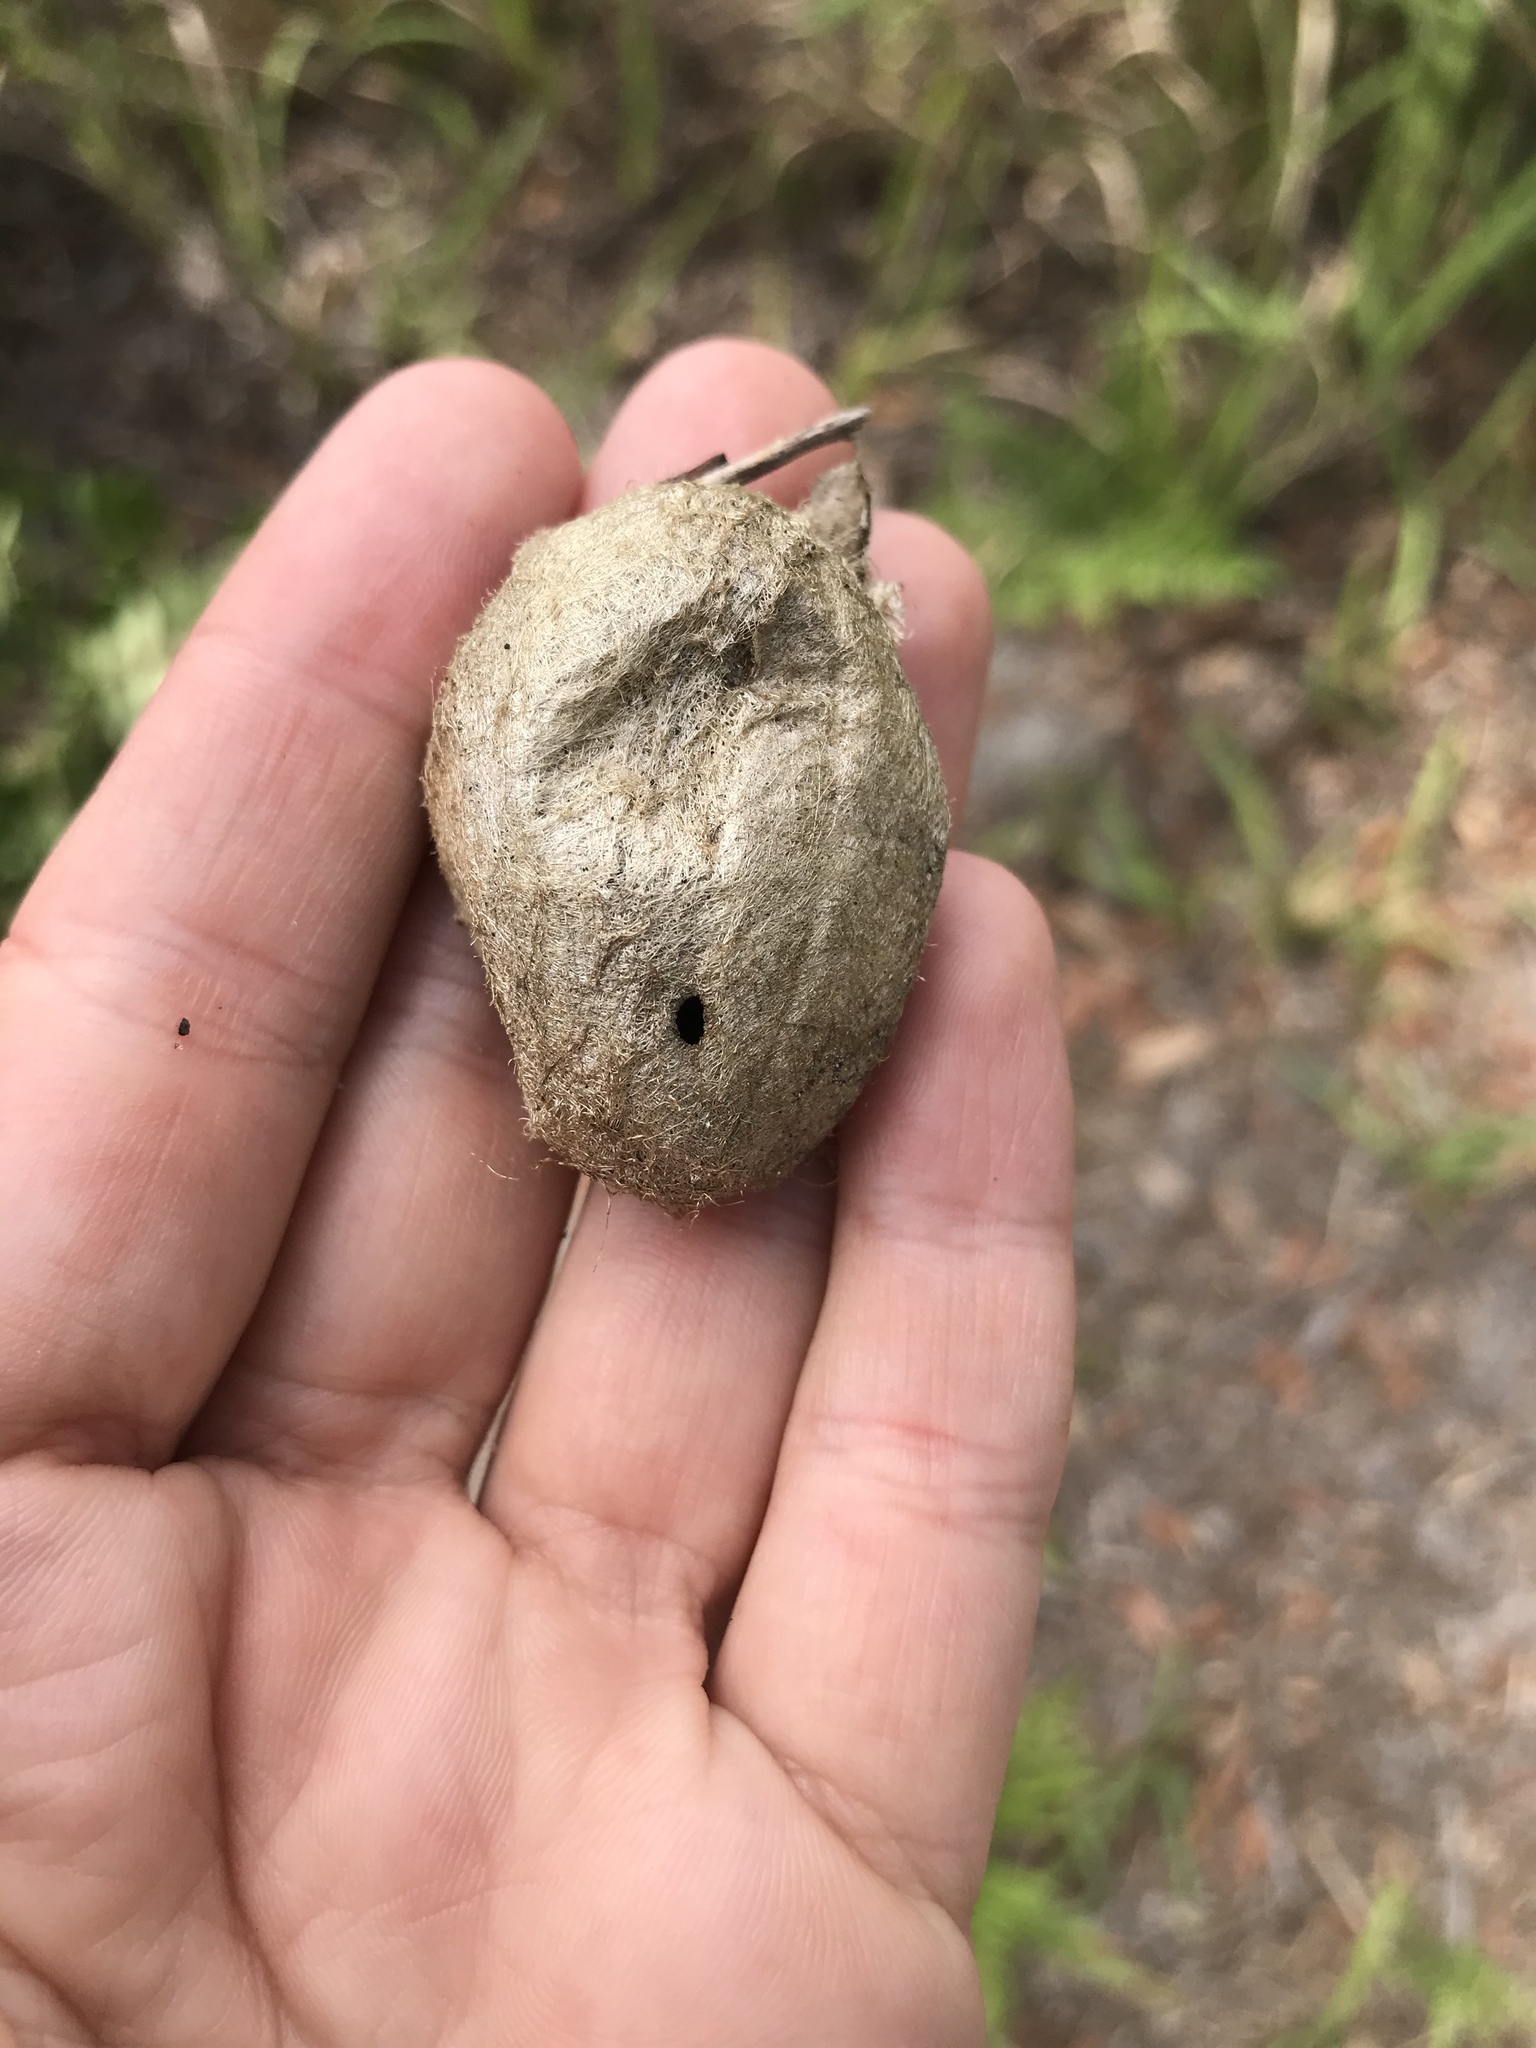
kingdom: Animalia
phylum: Arthropoda
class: Insecta
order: Lepidoptera
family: Saturniidae
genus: Antheraea
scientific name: Antheraea polyphemus
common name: Polyphemus moth
